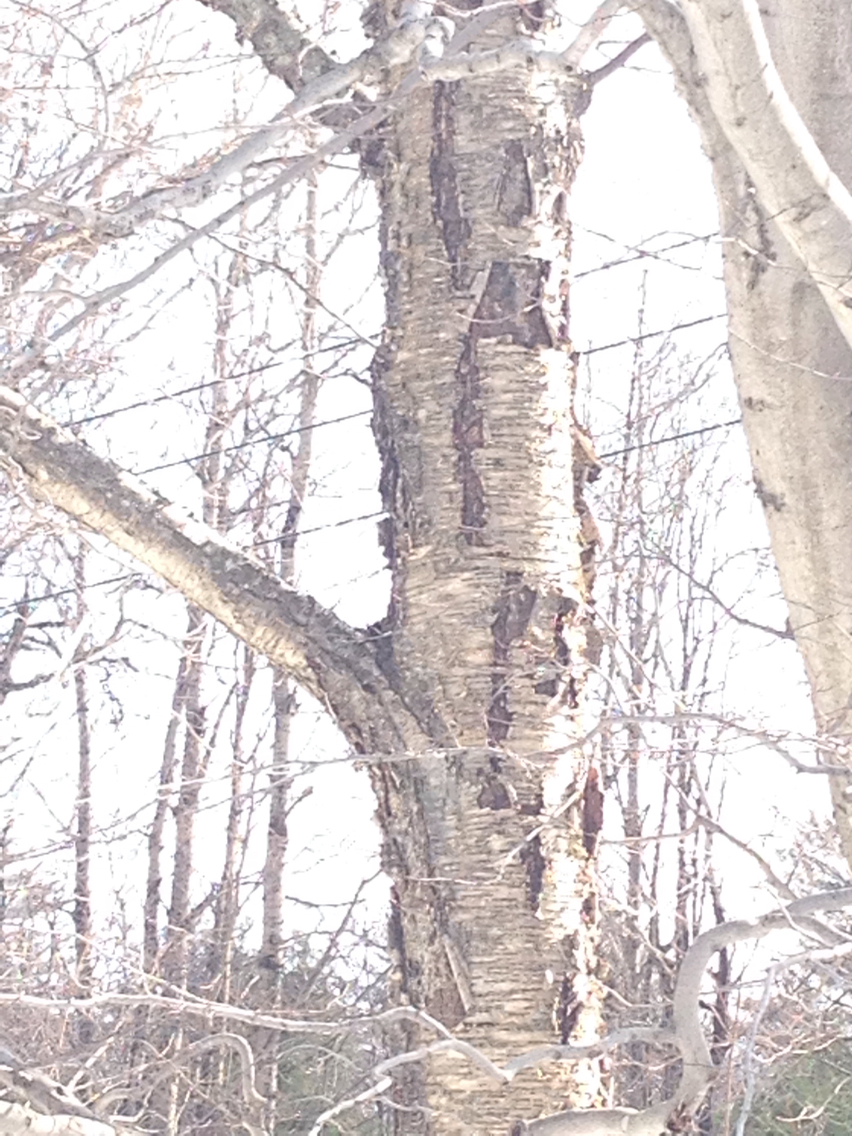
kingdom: Plantae
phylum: Tracheophyta
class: Magnoliopsida
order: Fagales
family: Betulaceae
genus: Betula
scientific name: Betula alleghaniensis
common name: Yellow birch
